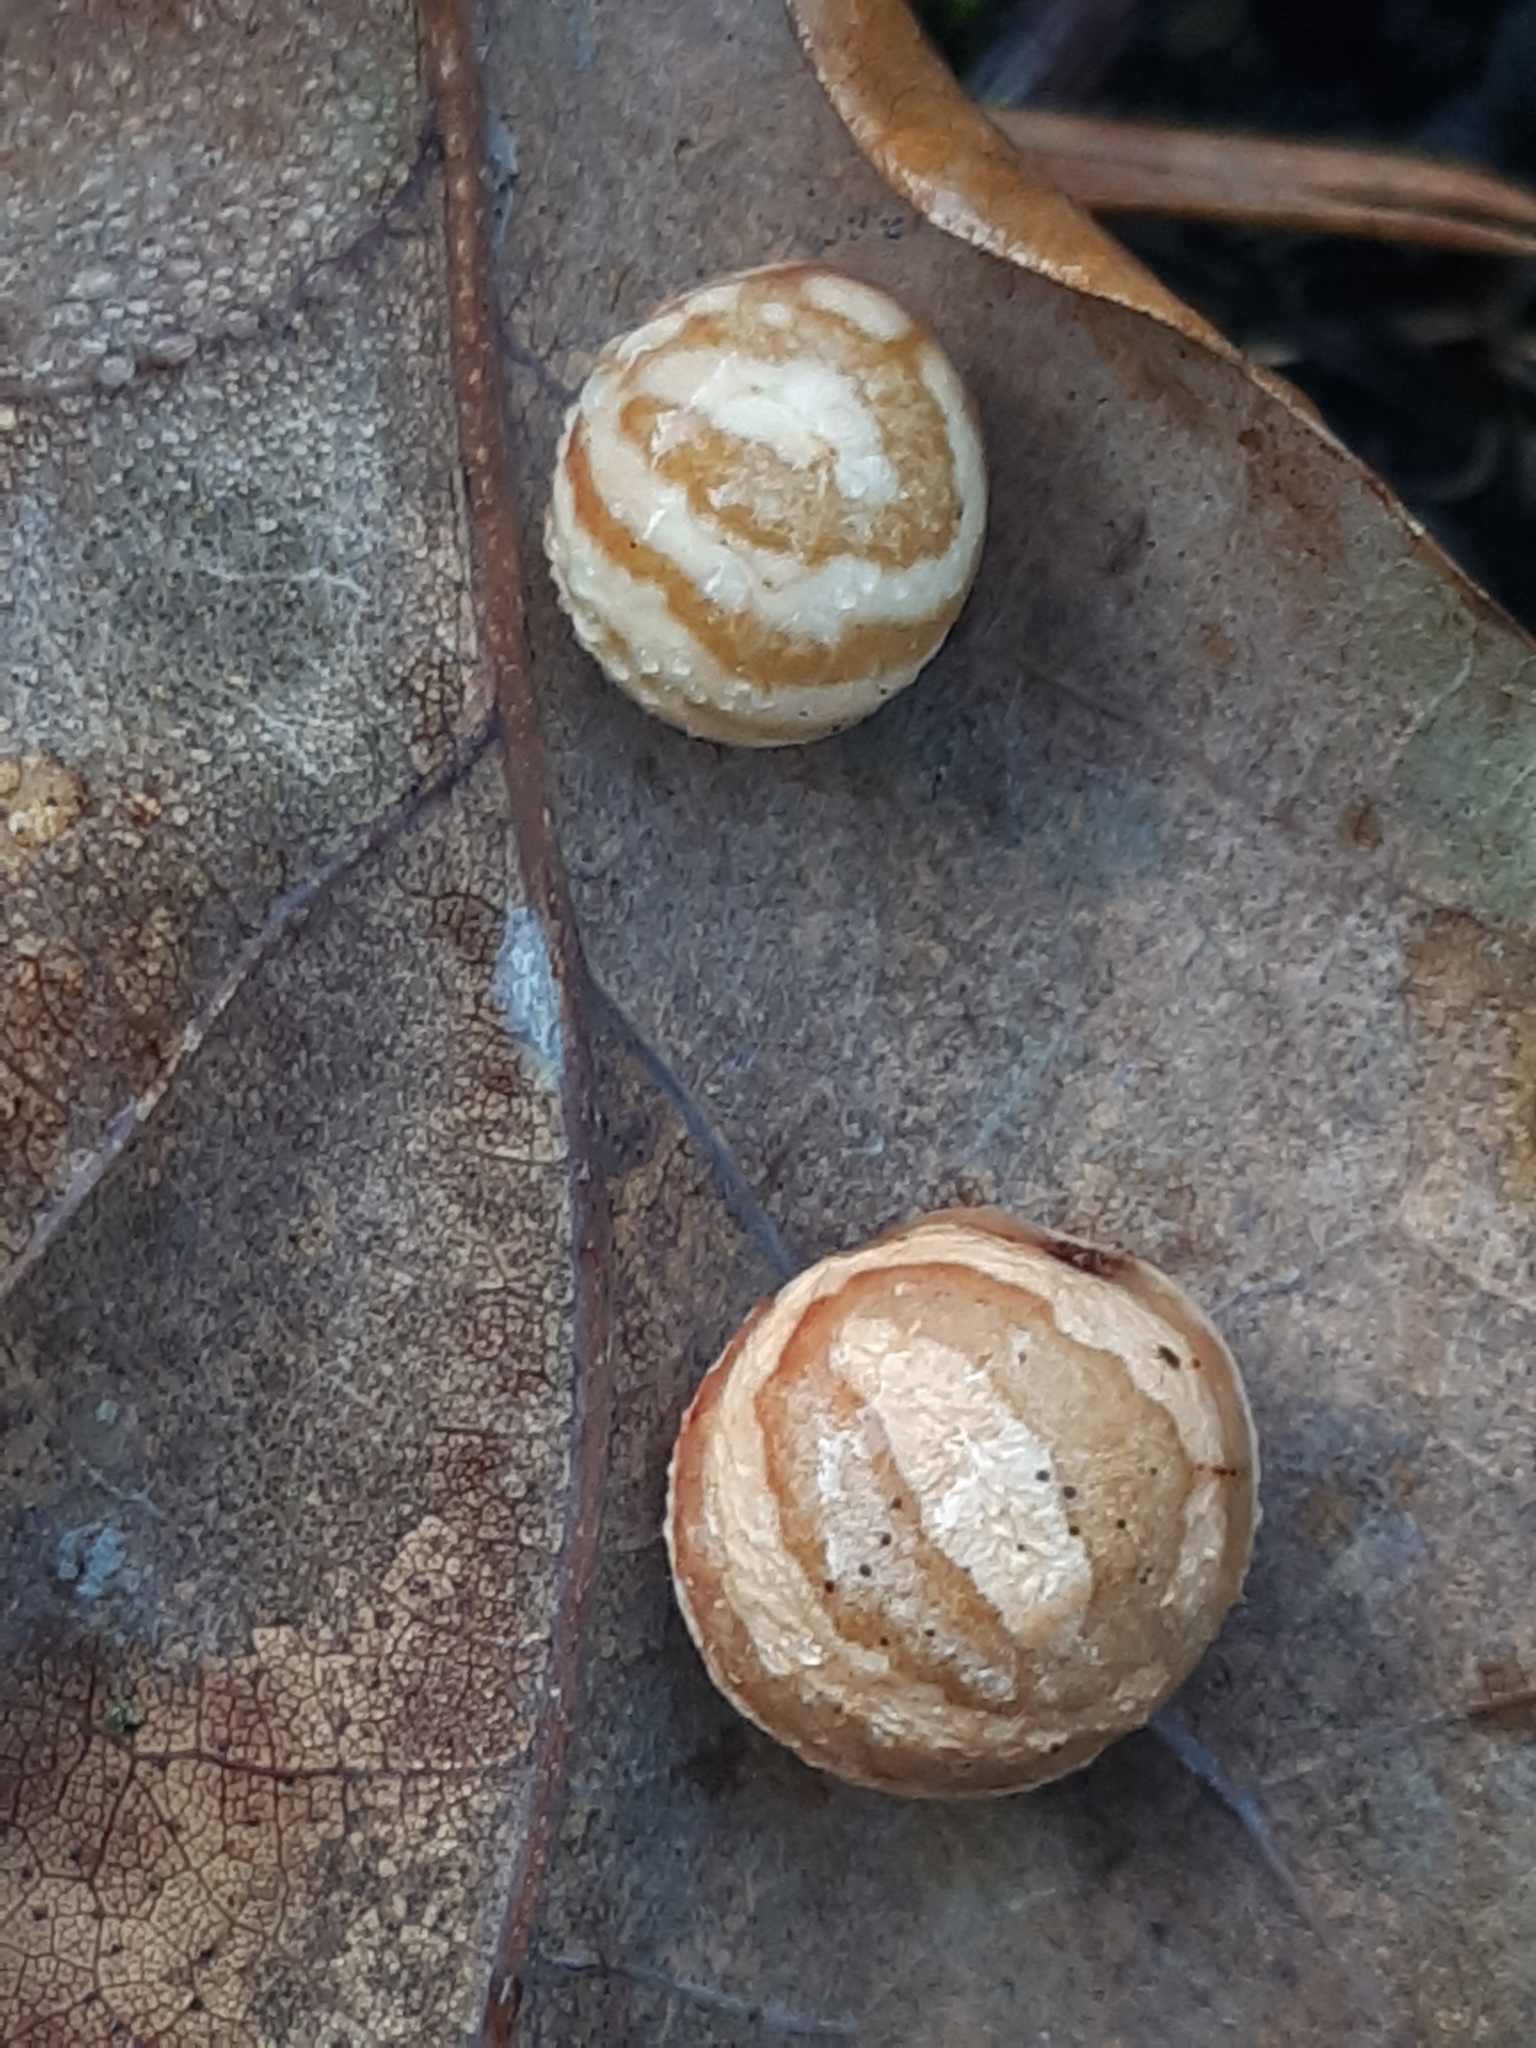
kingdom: Animalia
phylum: Arthropoda
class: Insecta
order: Hymenoptera
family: Cynipidae
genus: Cynips
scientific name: Cynips longiventris
